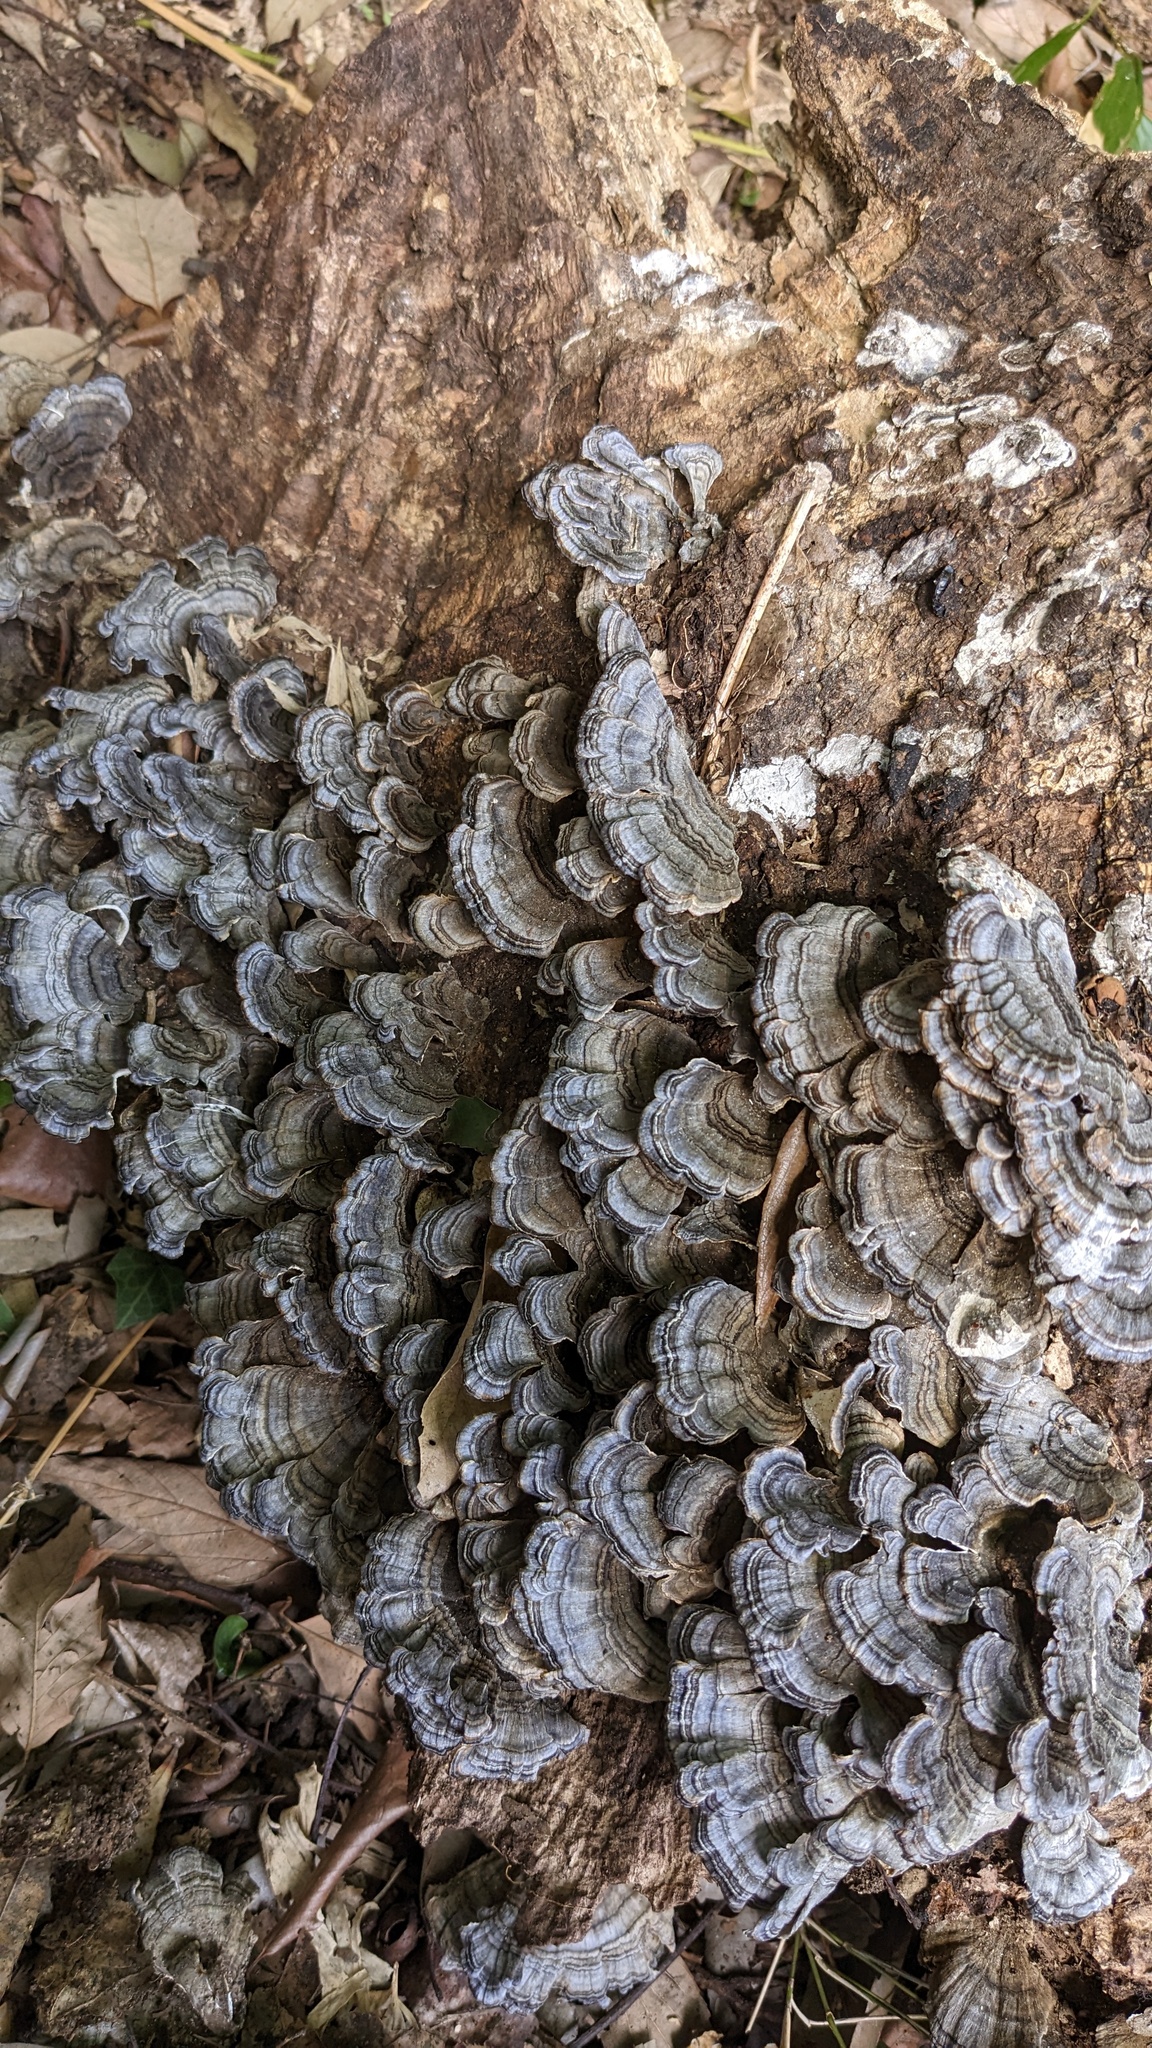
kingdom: Fungi
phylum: Basidiomycota
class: Agaricomycetes
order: Polyporales
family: Polyporaceae
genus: Trametes
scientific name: Trametes versicolor
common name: Turkeytail
